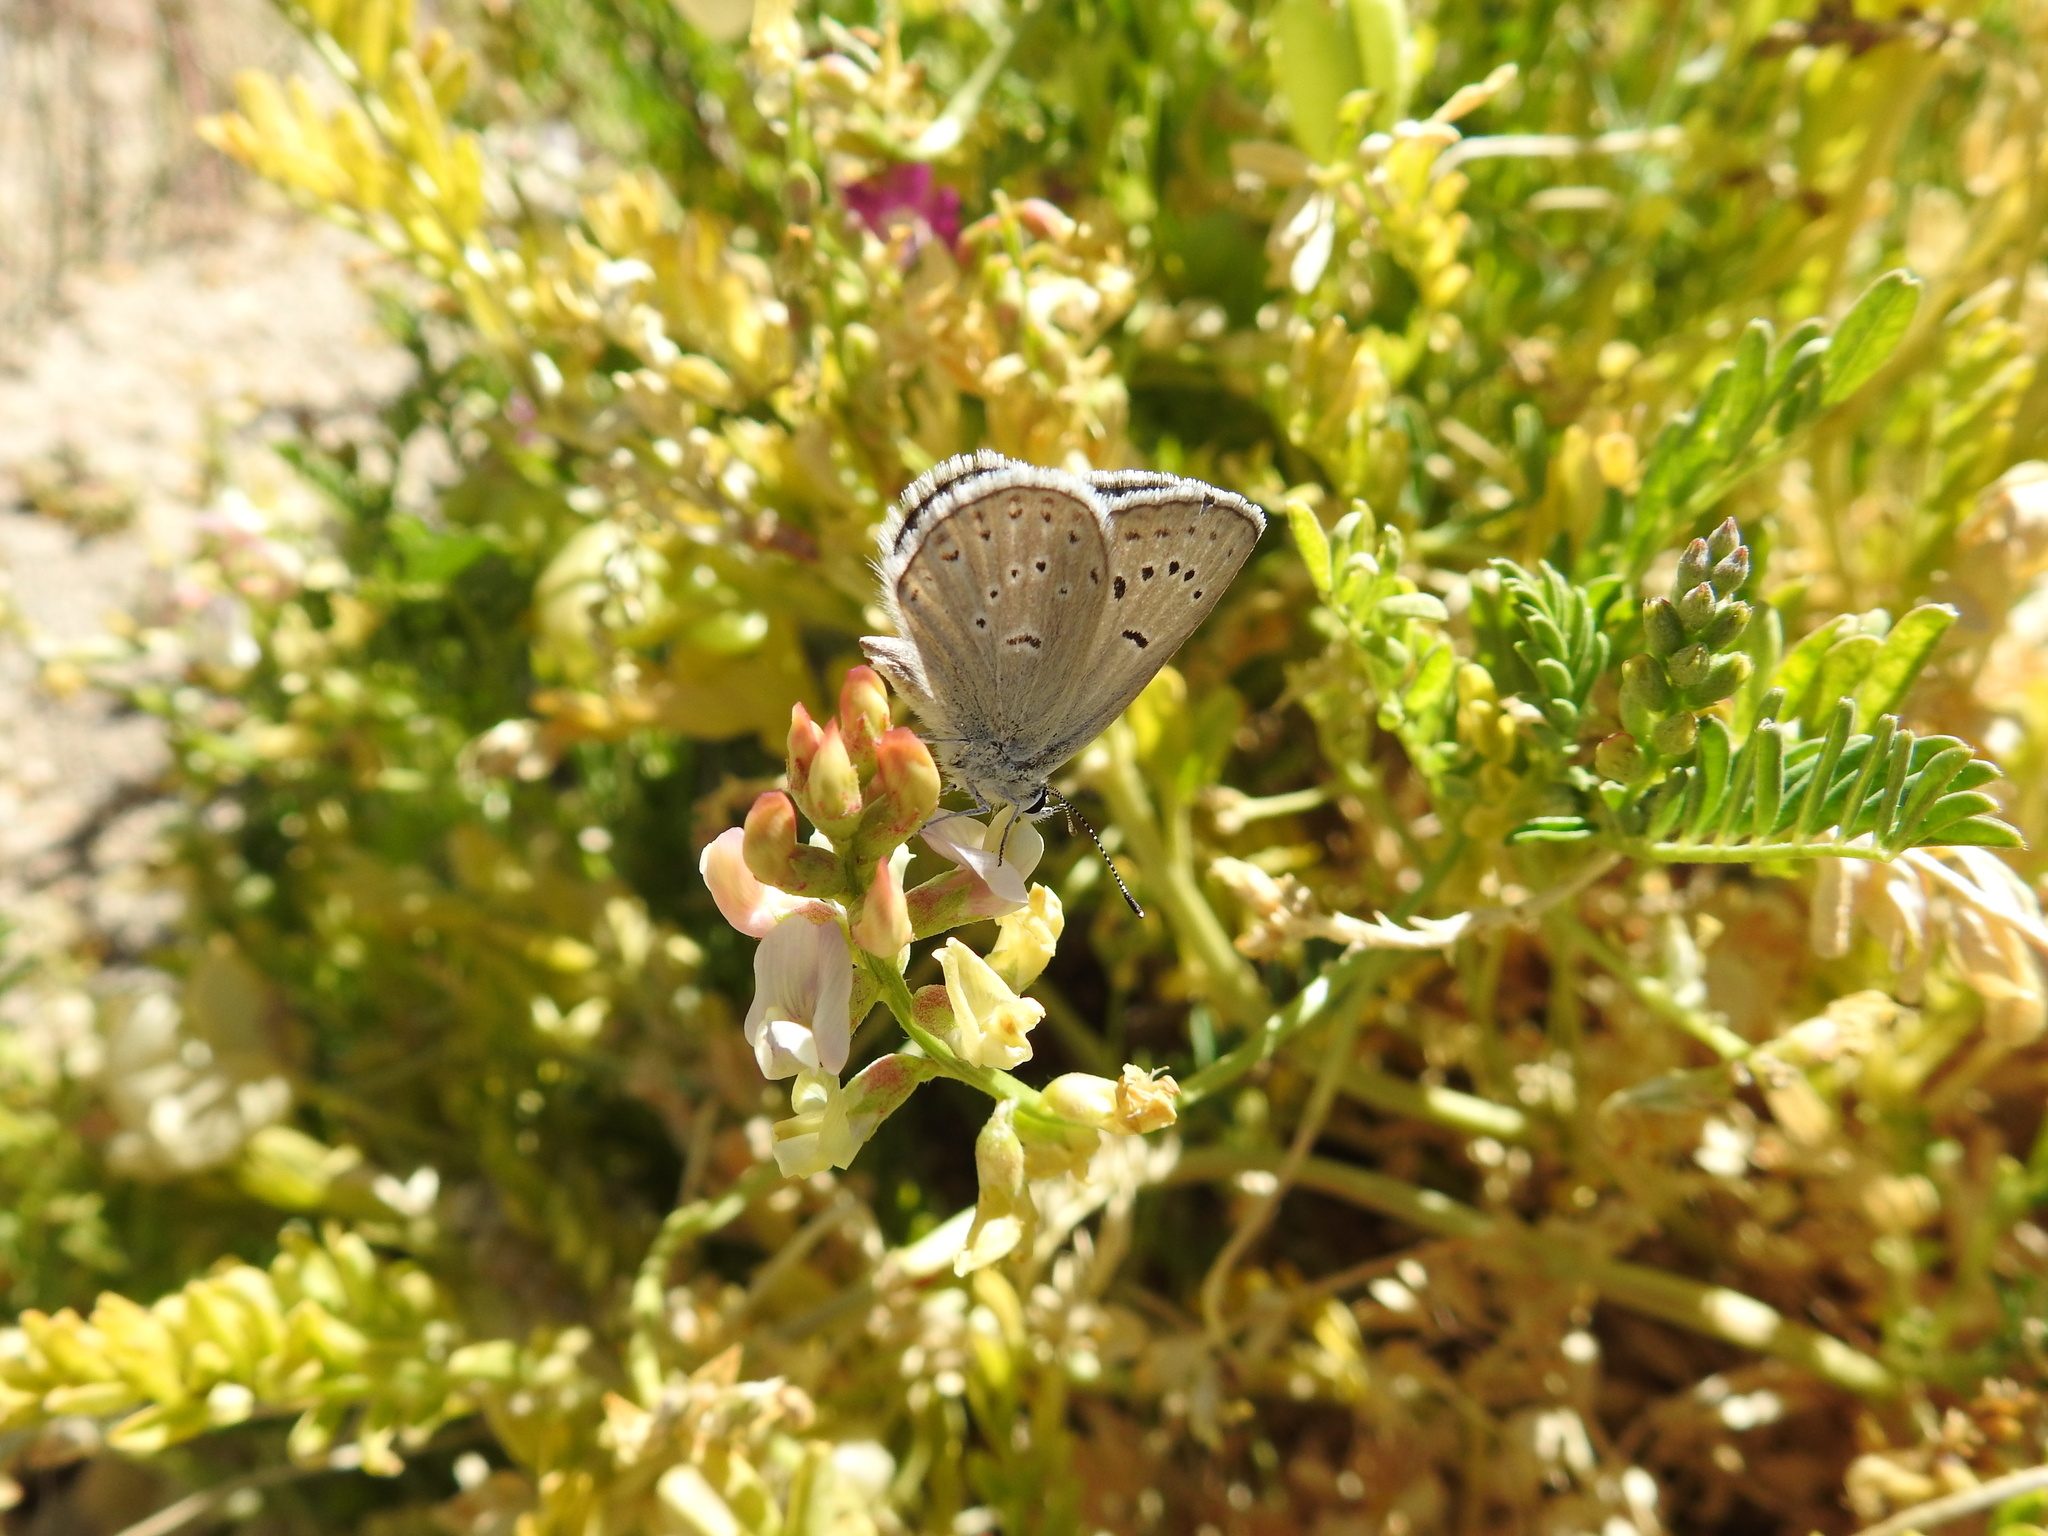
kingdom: Animalia
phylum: Arthropoda
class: Insecta
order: Lepidoptera
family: Lycaenidae
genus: Icaricia
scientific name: Icaricia icarioides
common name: Boisduval's blue
